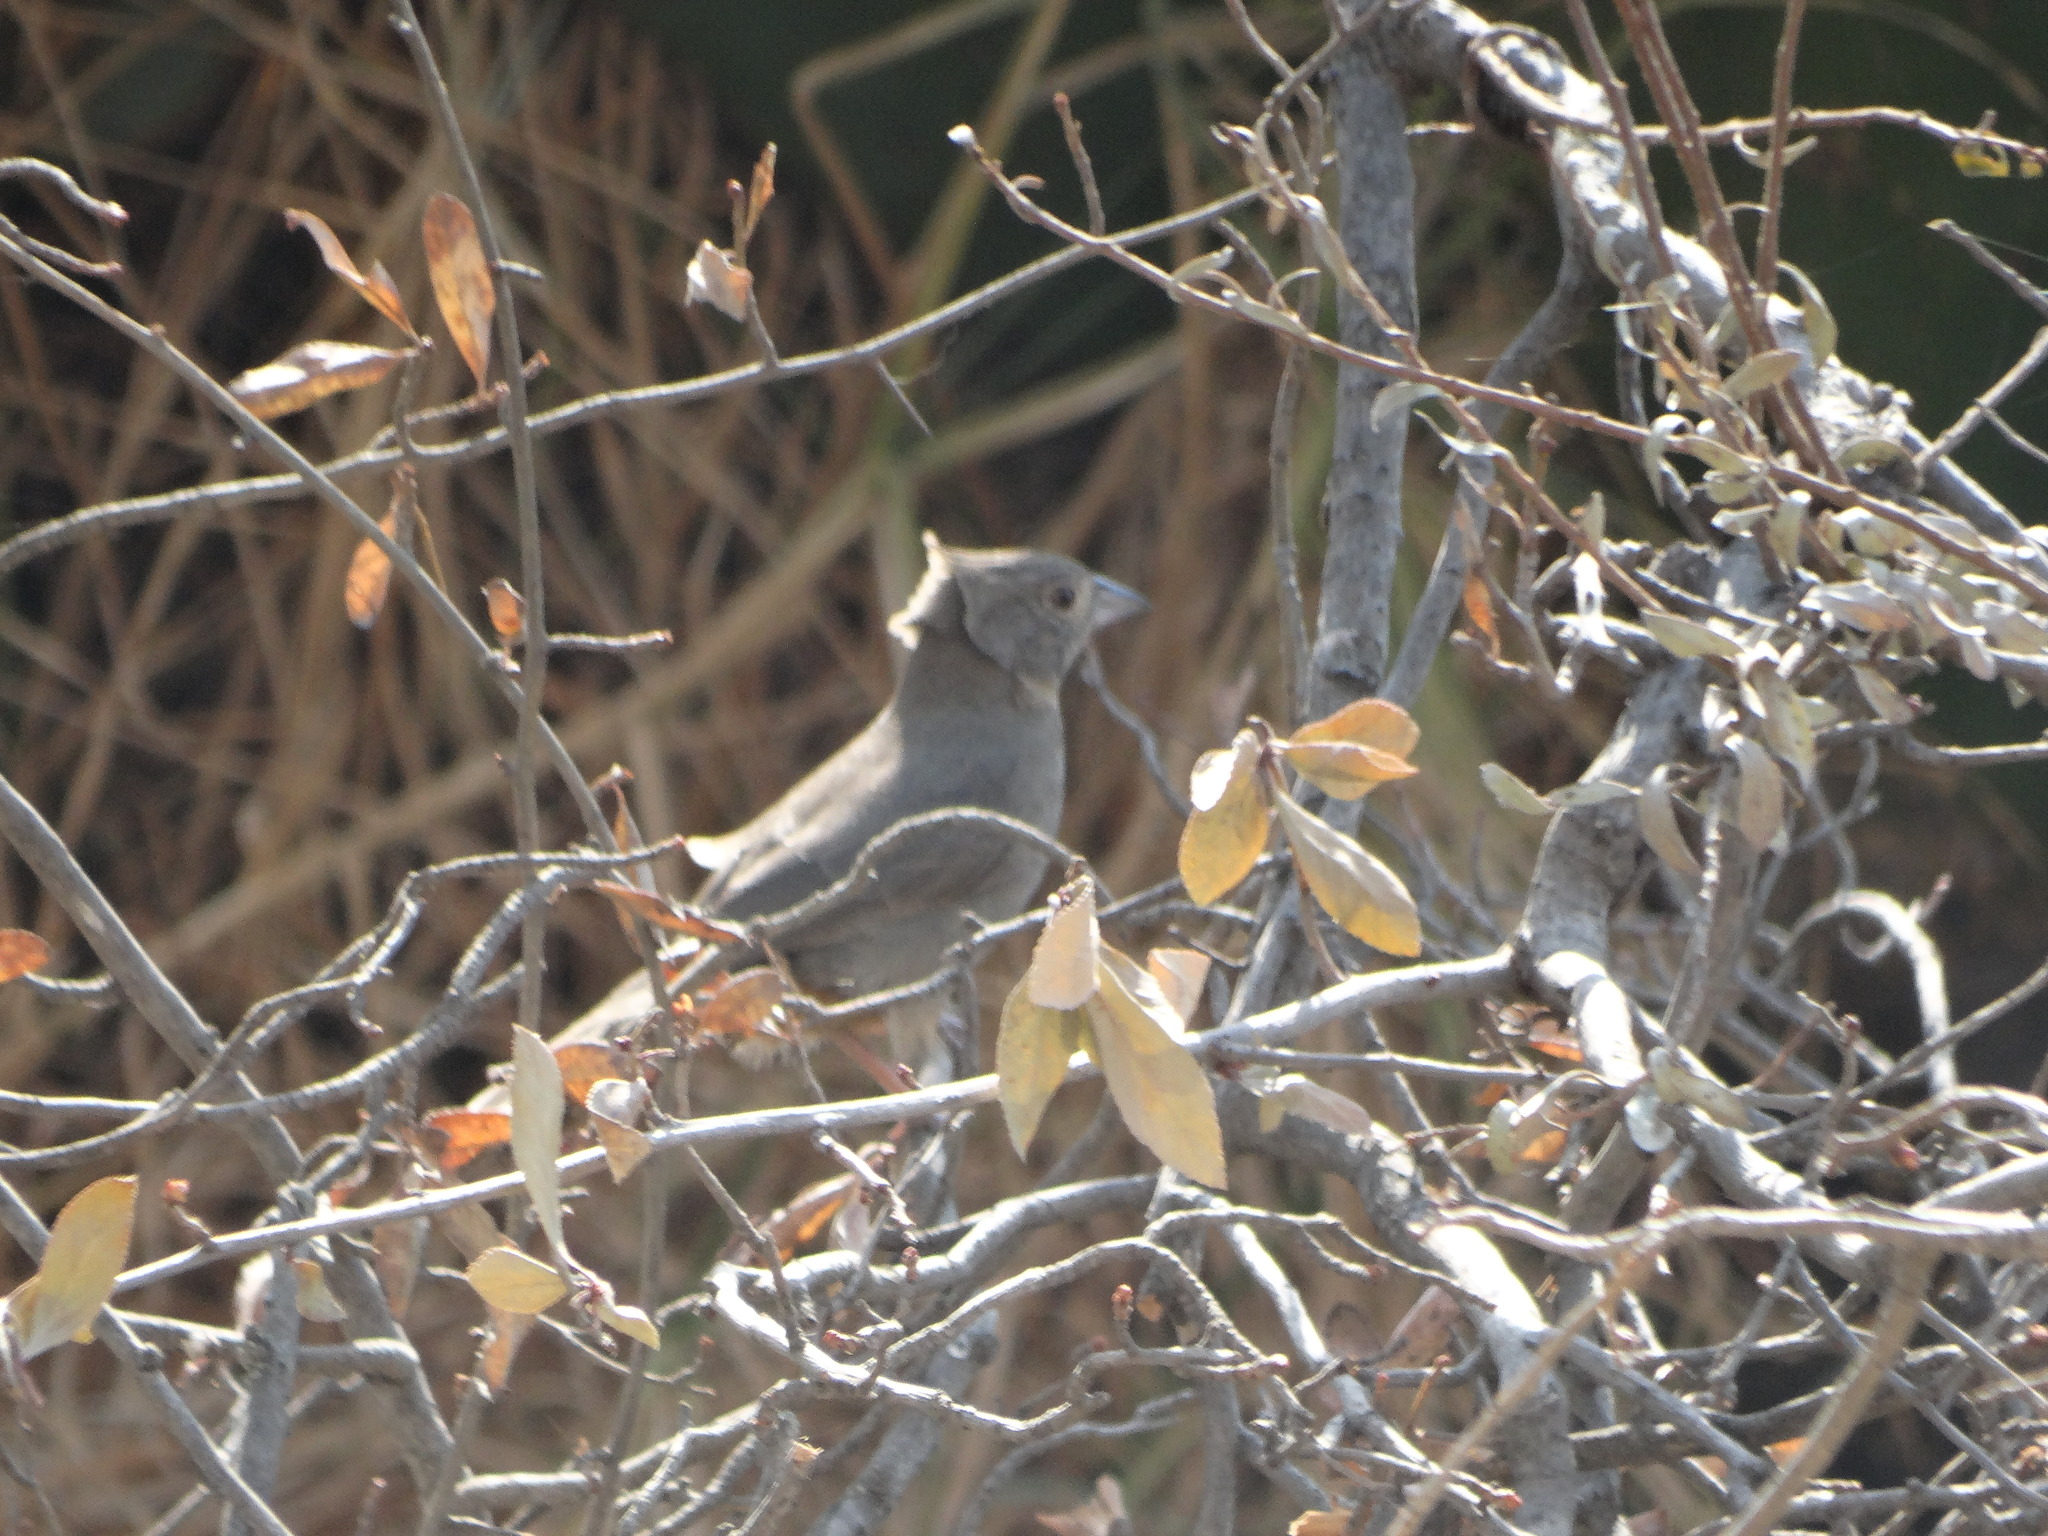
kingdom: Animalia
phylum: Chordata
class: Aves
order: Passeriformes
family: Passerellidae
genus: Melozone
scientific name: Melozone fusca
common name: Canyon towhee
